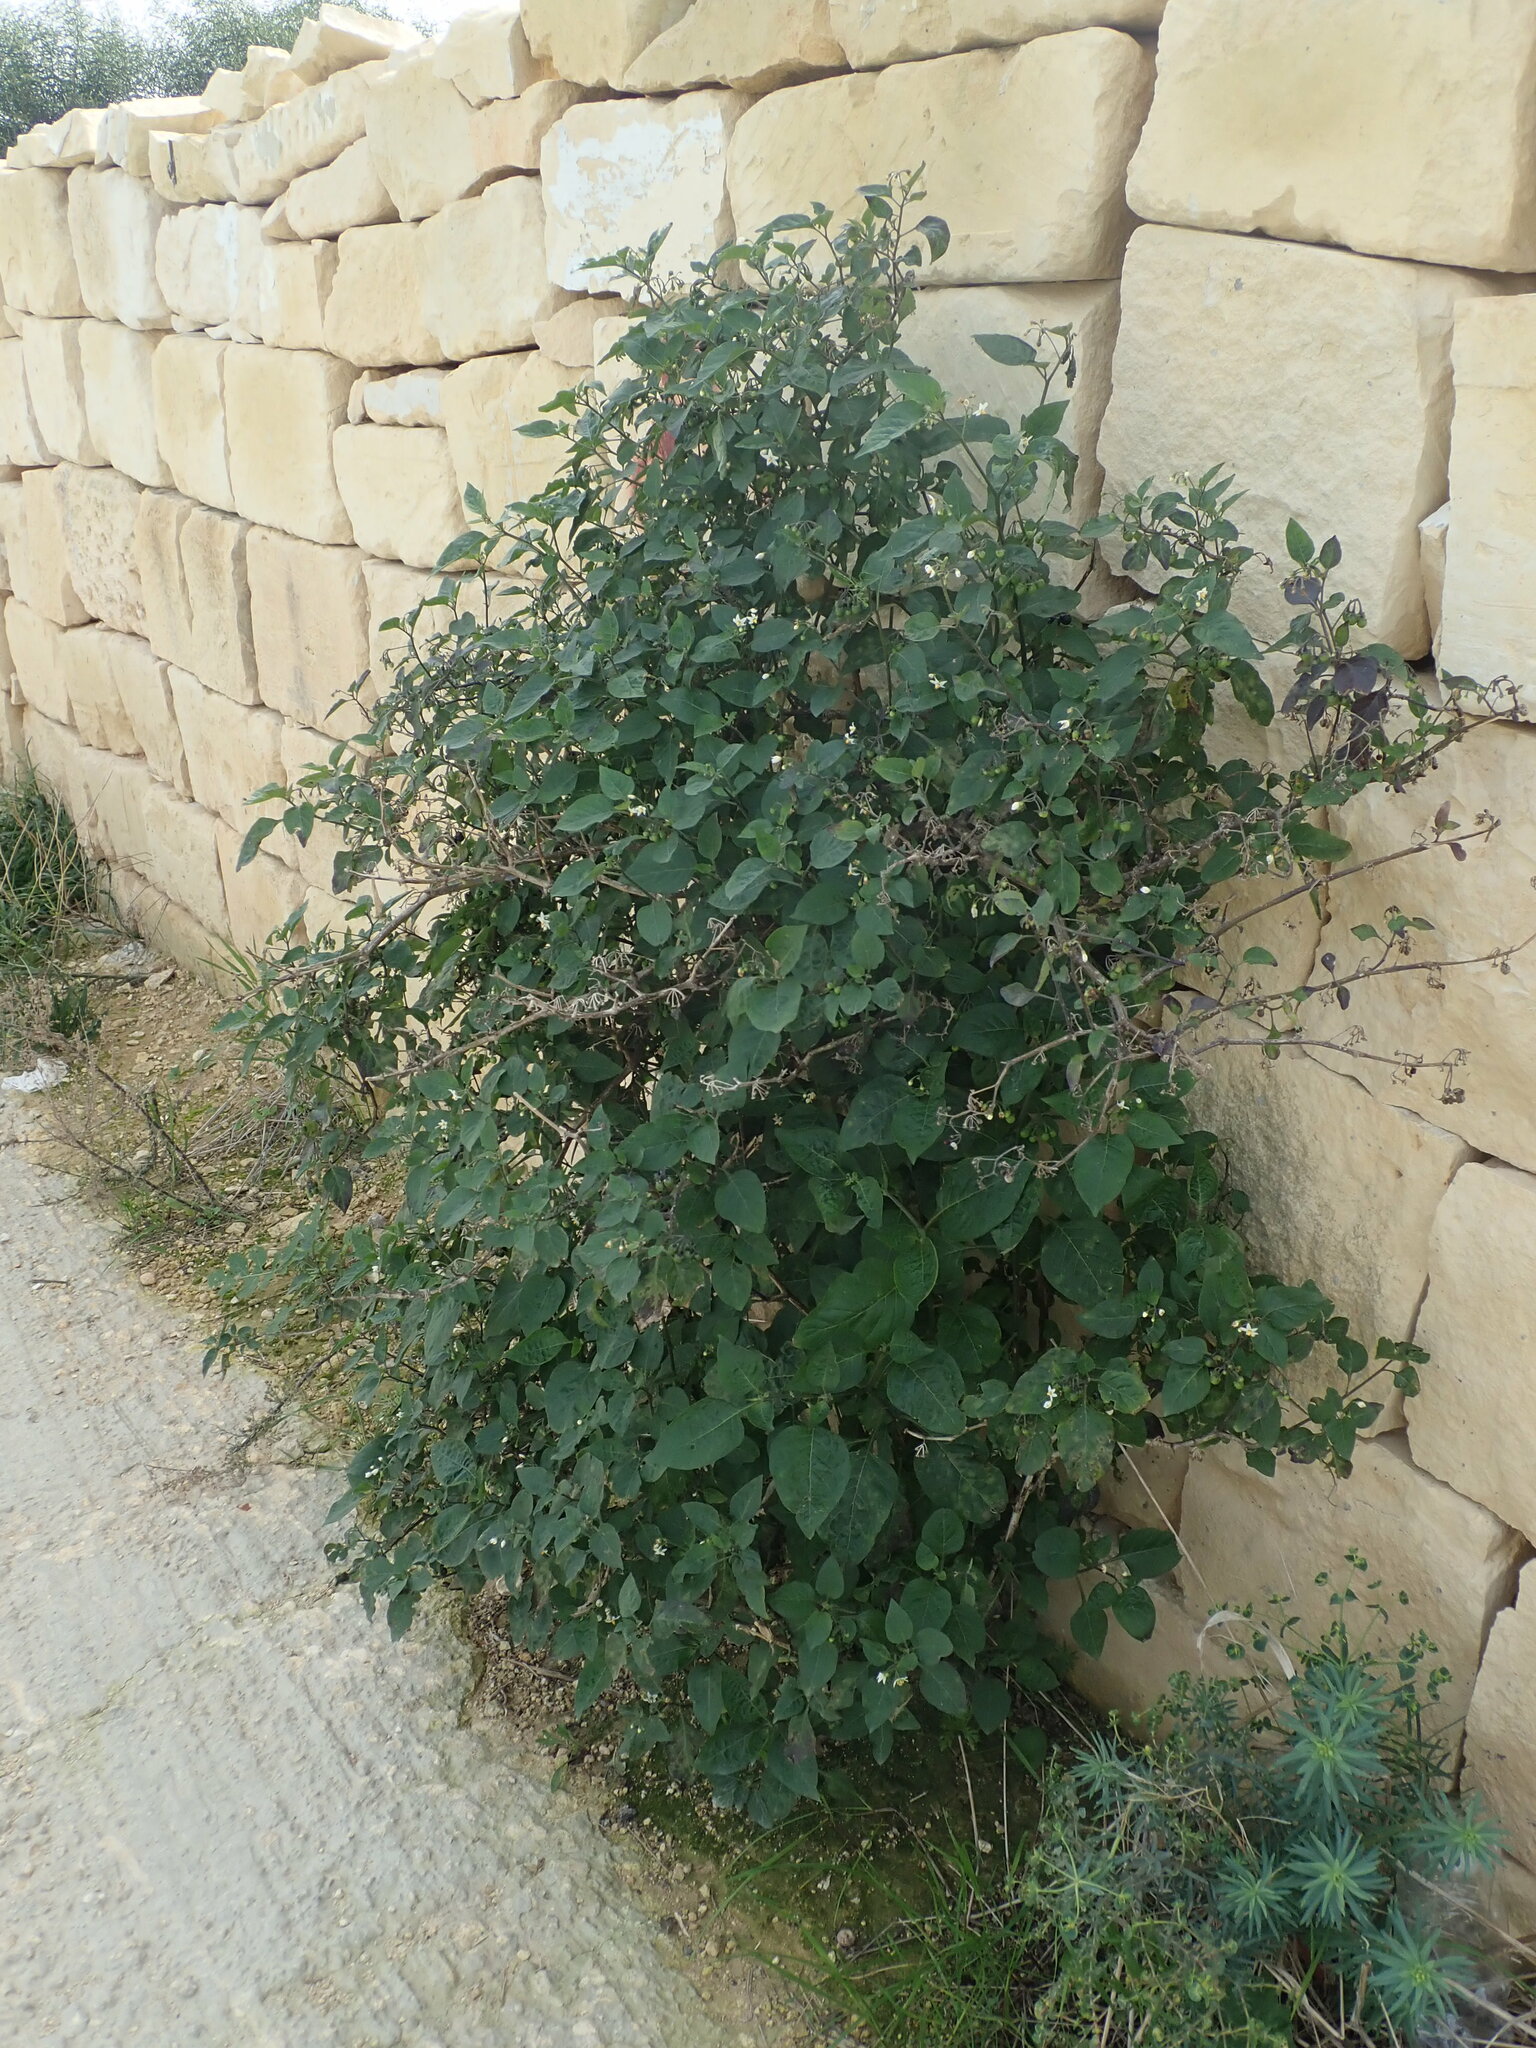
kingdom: Plantae
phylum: Tracheophyta
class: Magnoliopsida
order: Solanales
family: Solanaceae
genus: Solanum
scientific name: Solanum nigrum
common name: Black nightshade
